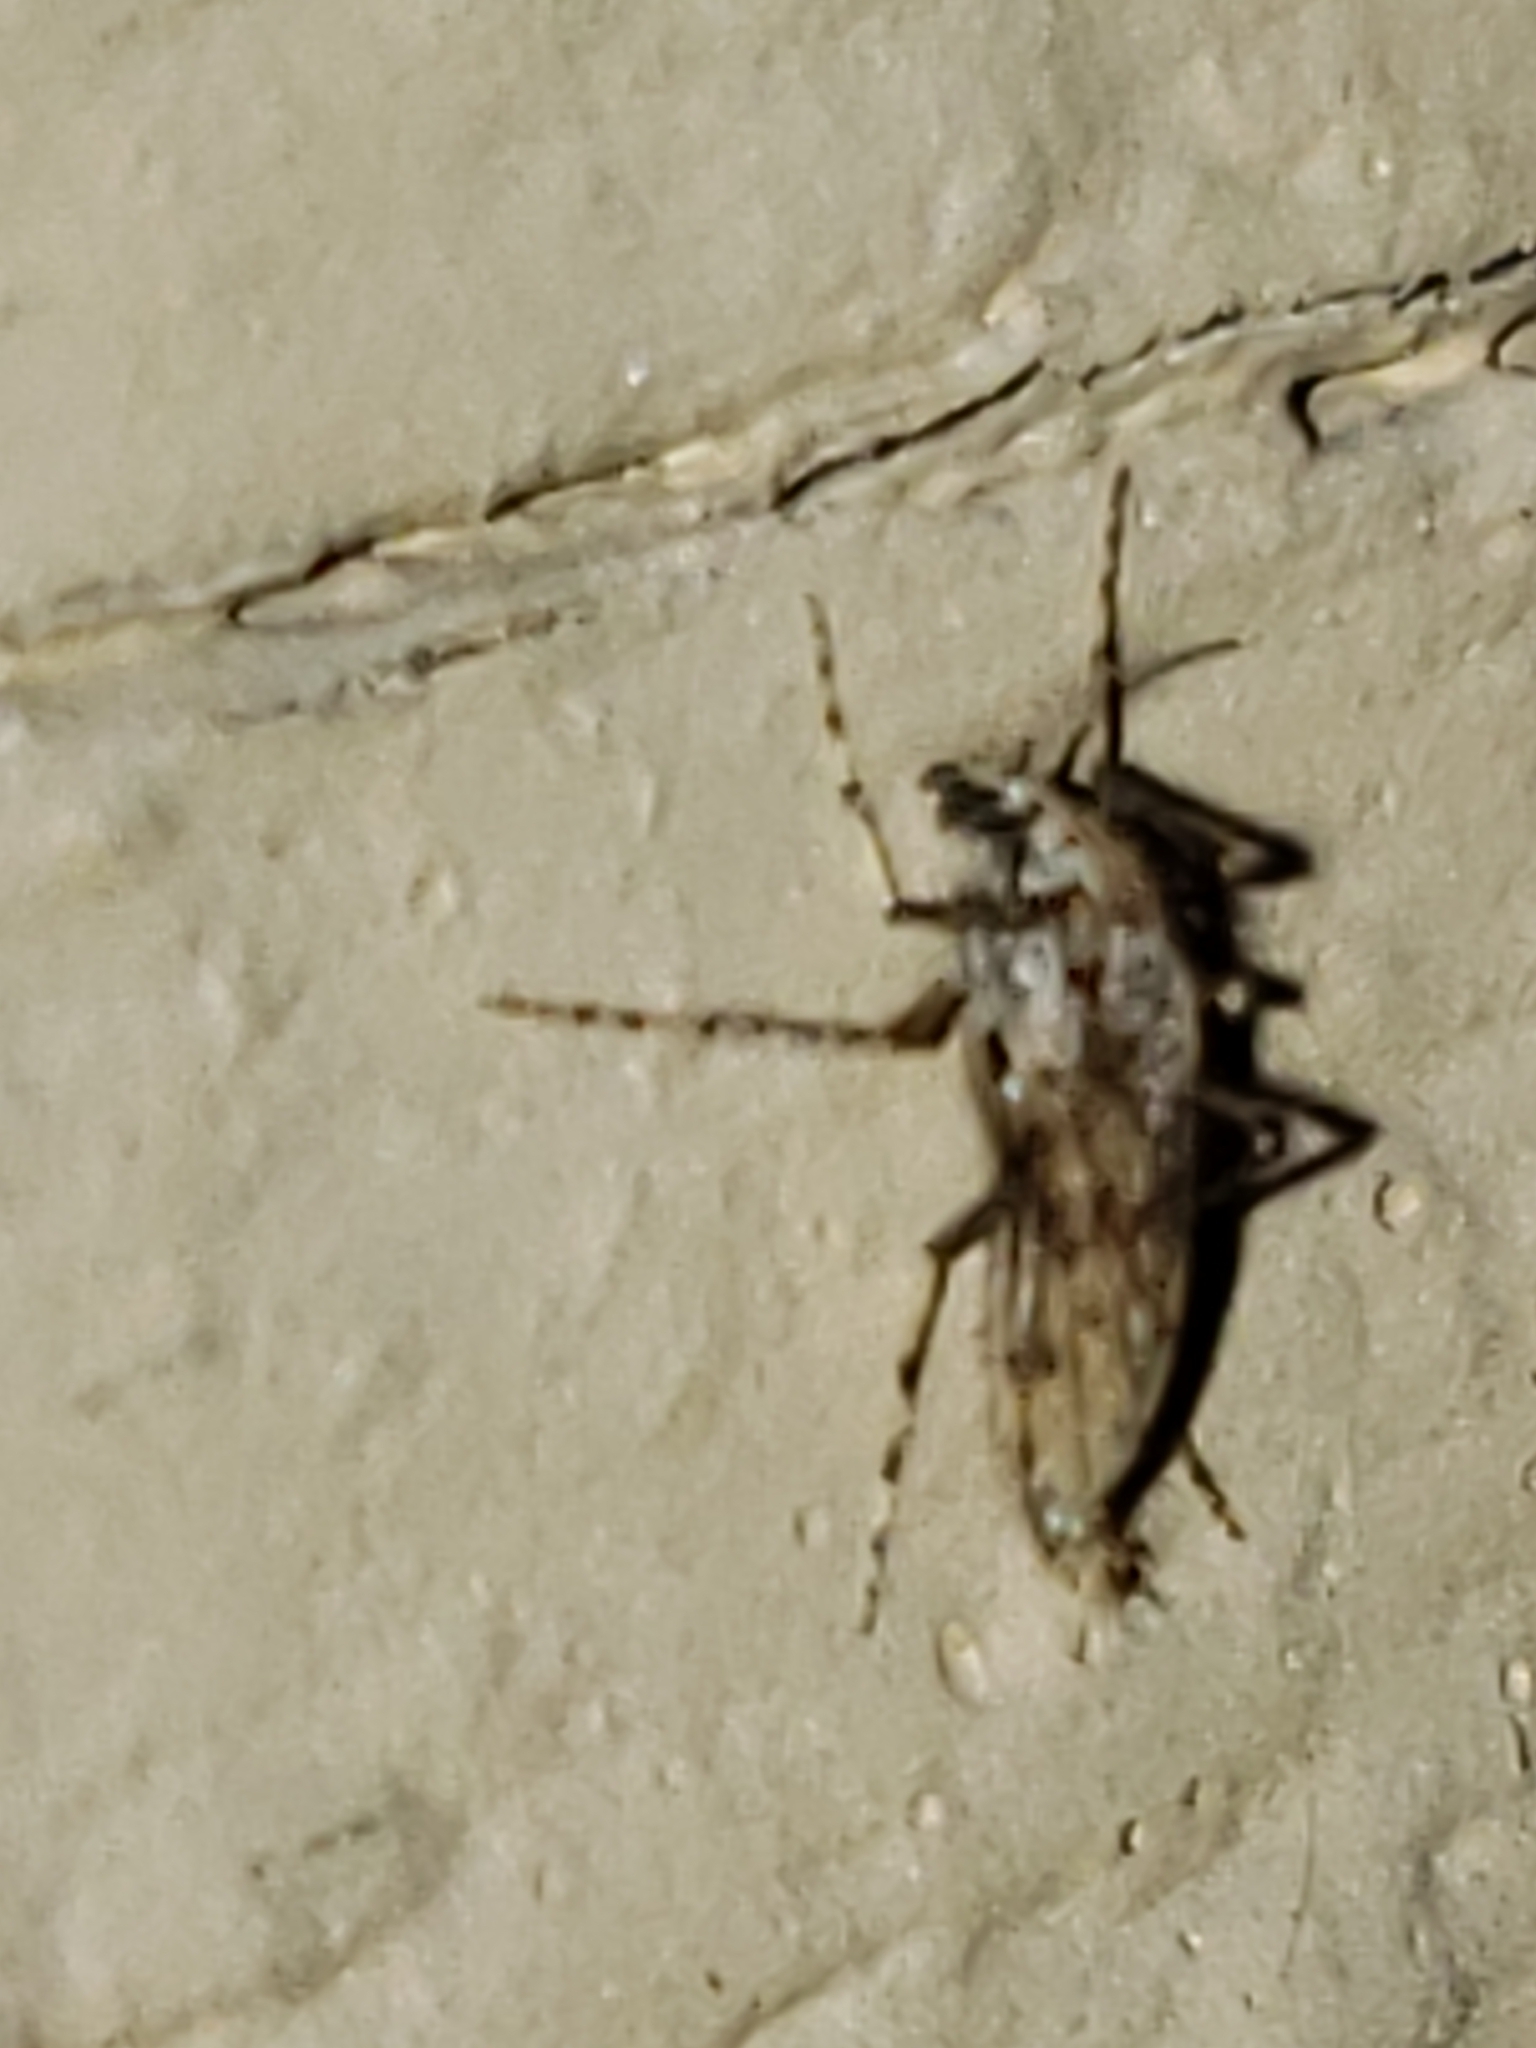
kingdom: Animalia
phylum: Arthropoda
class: Insecta
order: Diptera
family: Chaoboridae
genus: Chaoborus
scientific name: Chaoborus punctipennis
